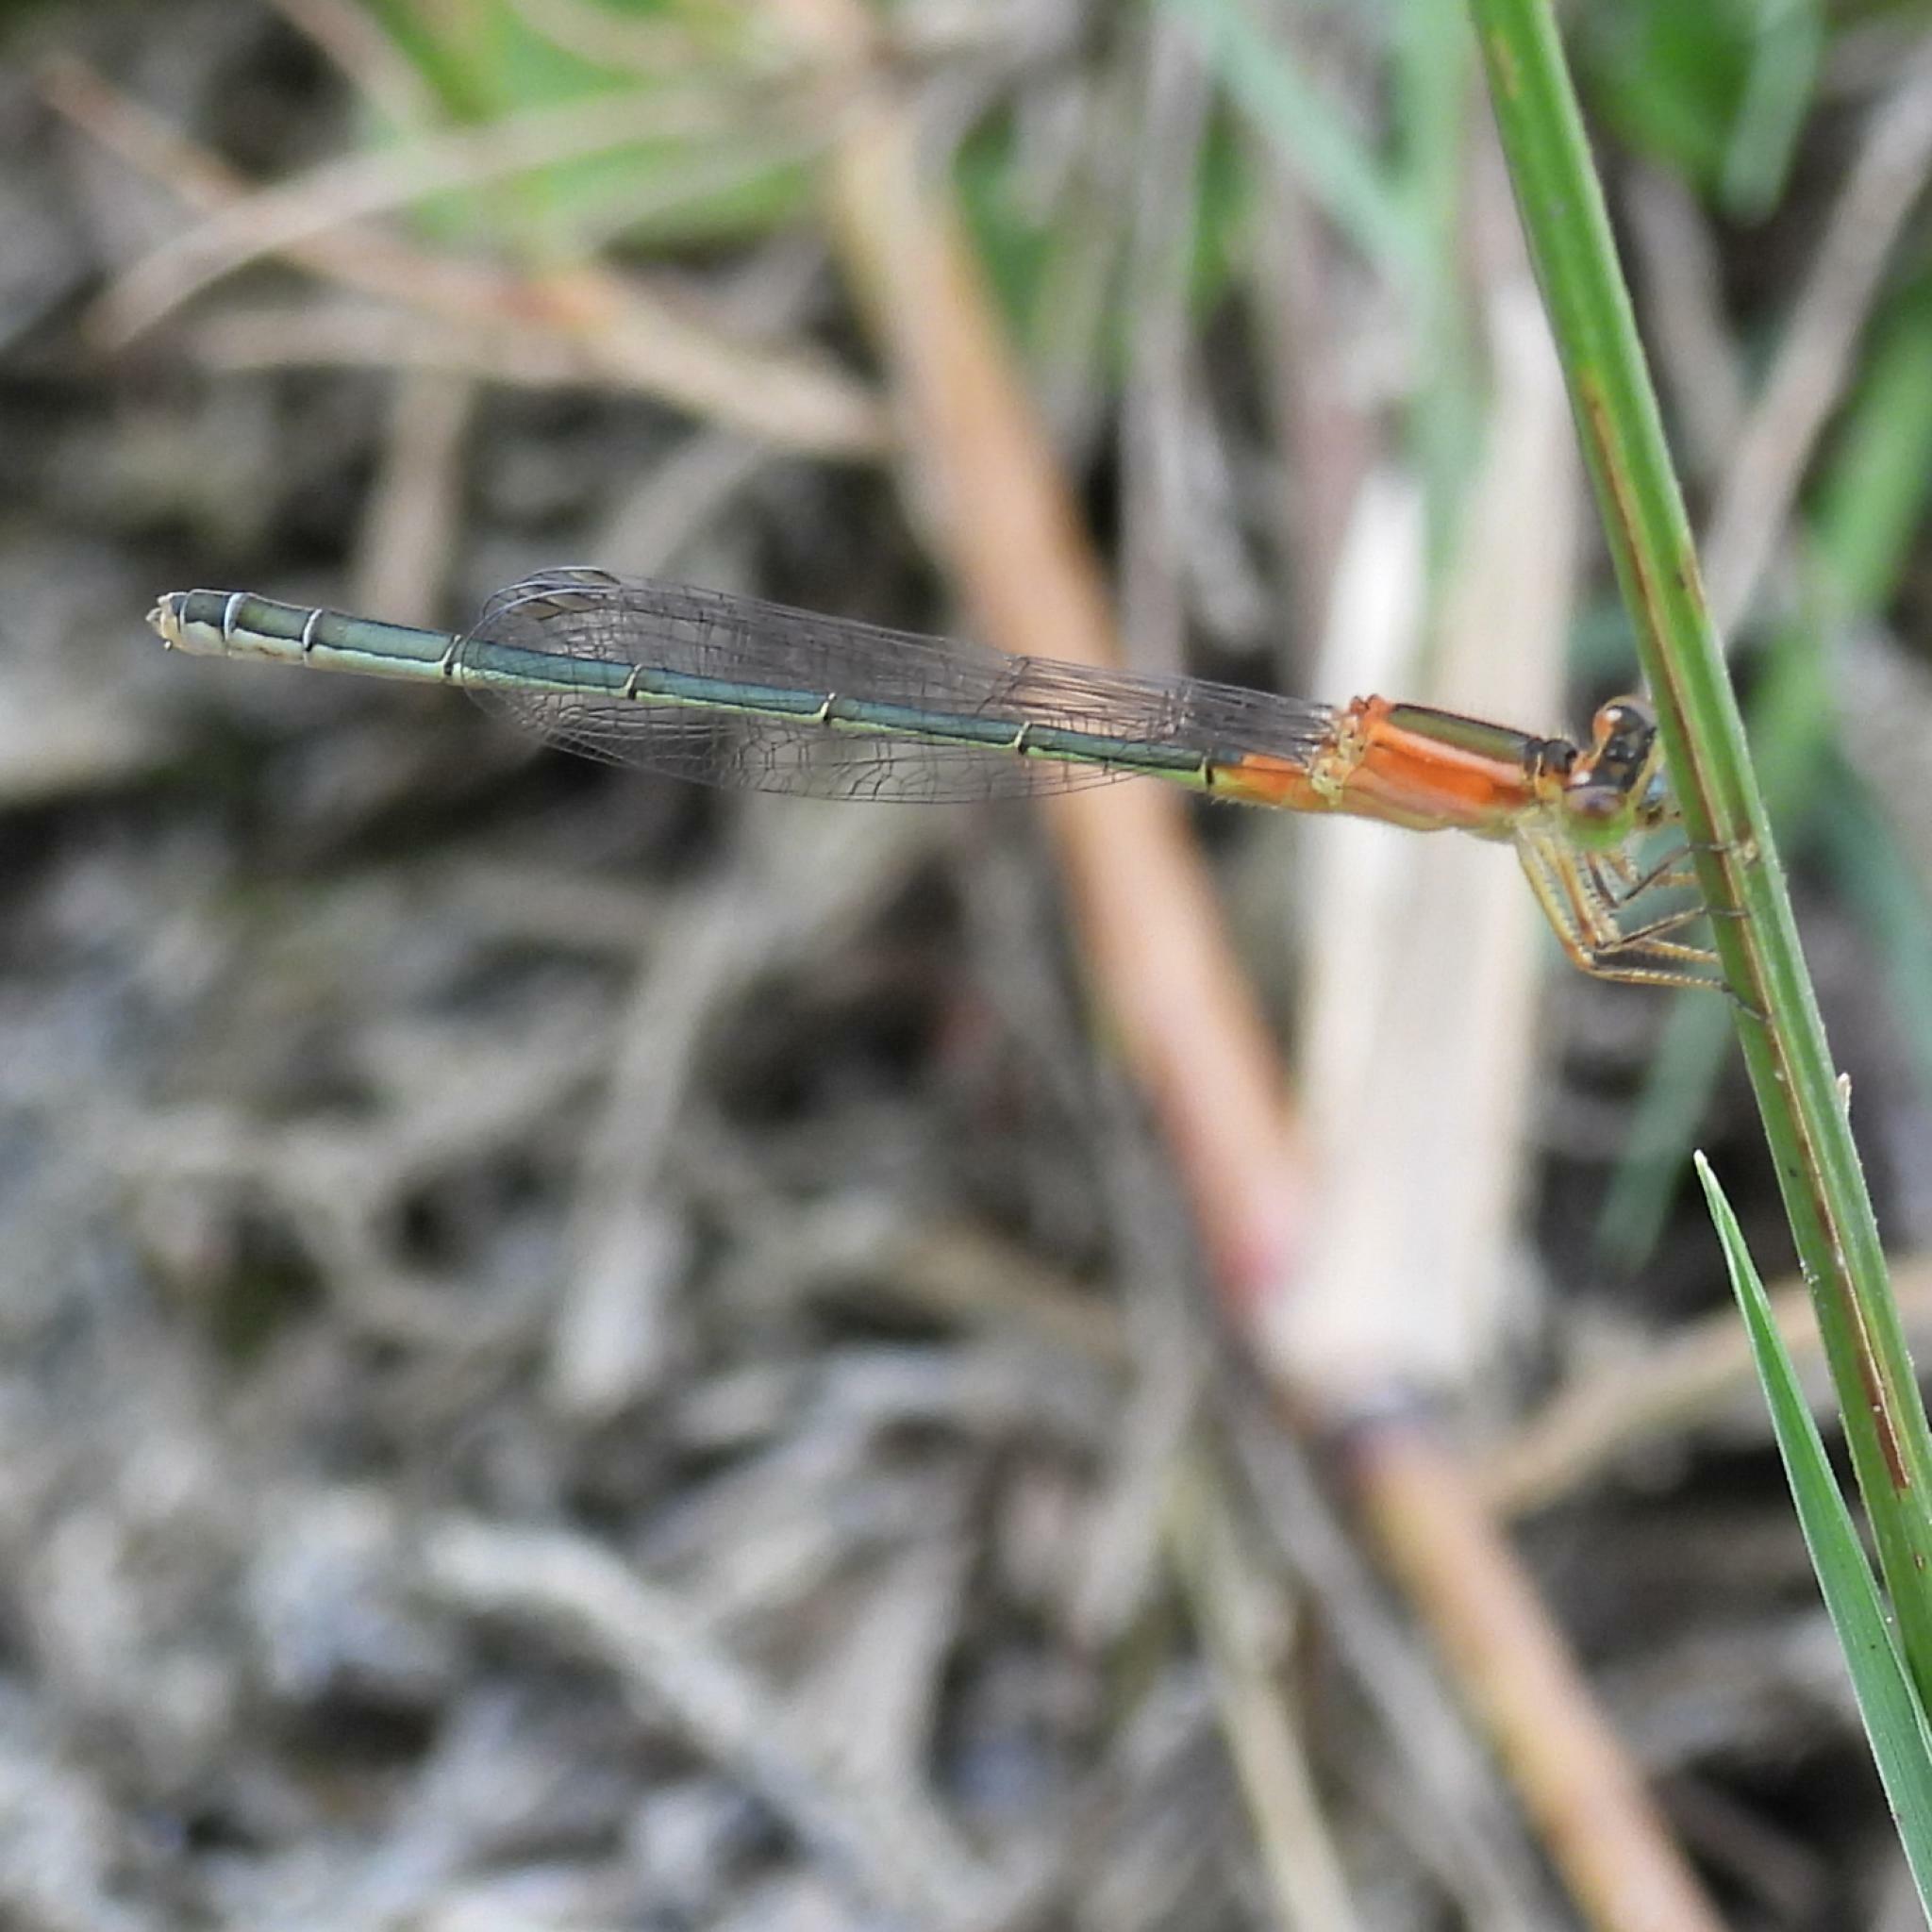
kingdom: Animalia
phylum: Arthropoda
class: Insecta
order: Odonata
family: Coenagrionidae
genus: Ischnura
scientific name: Ischnura senegalensis
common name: Tropical bluetail
